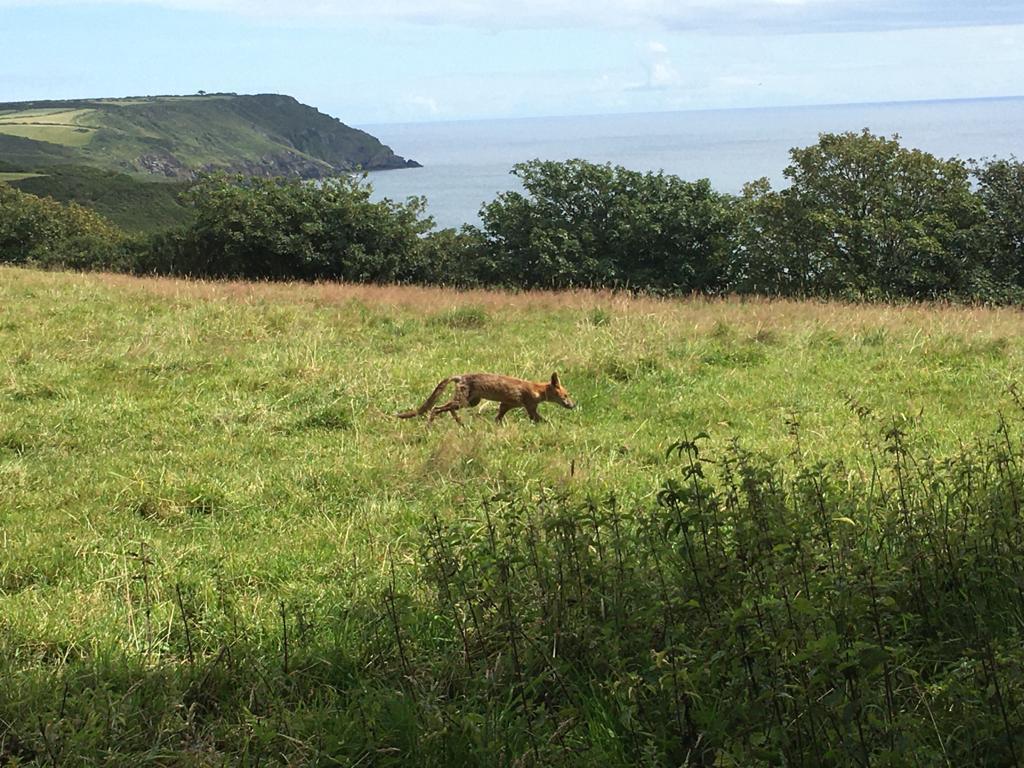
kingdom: Animalia
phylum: Chordata
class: Mammalia
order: Carnivora
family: Canidae
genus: Vulpes
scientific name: Vulpes vulpes
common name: Red fox
